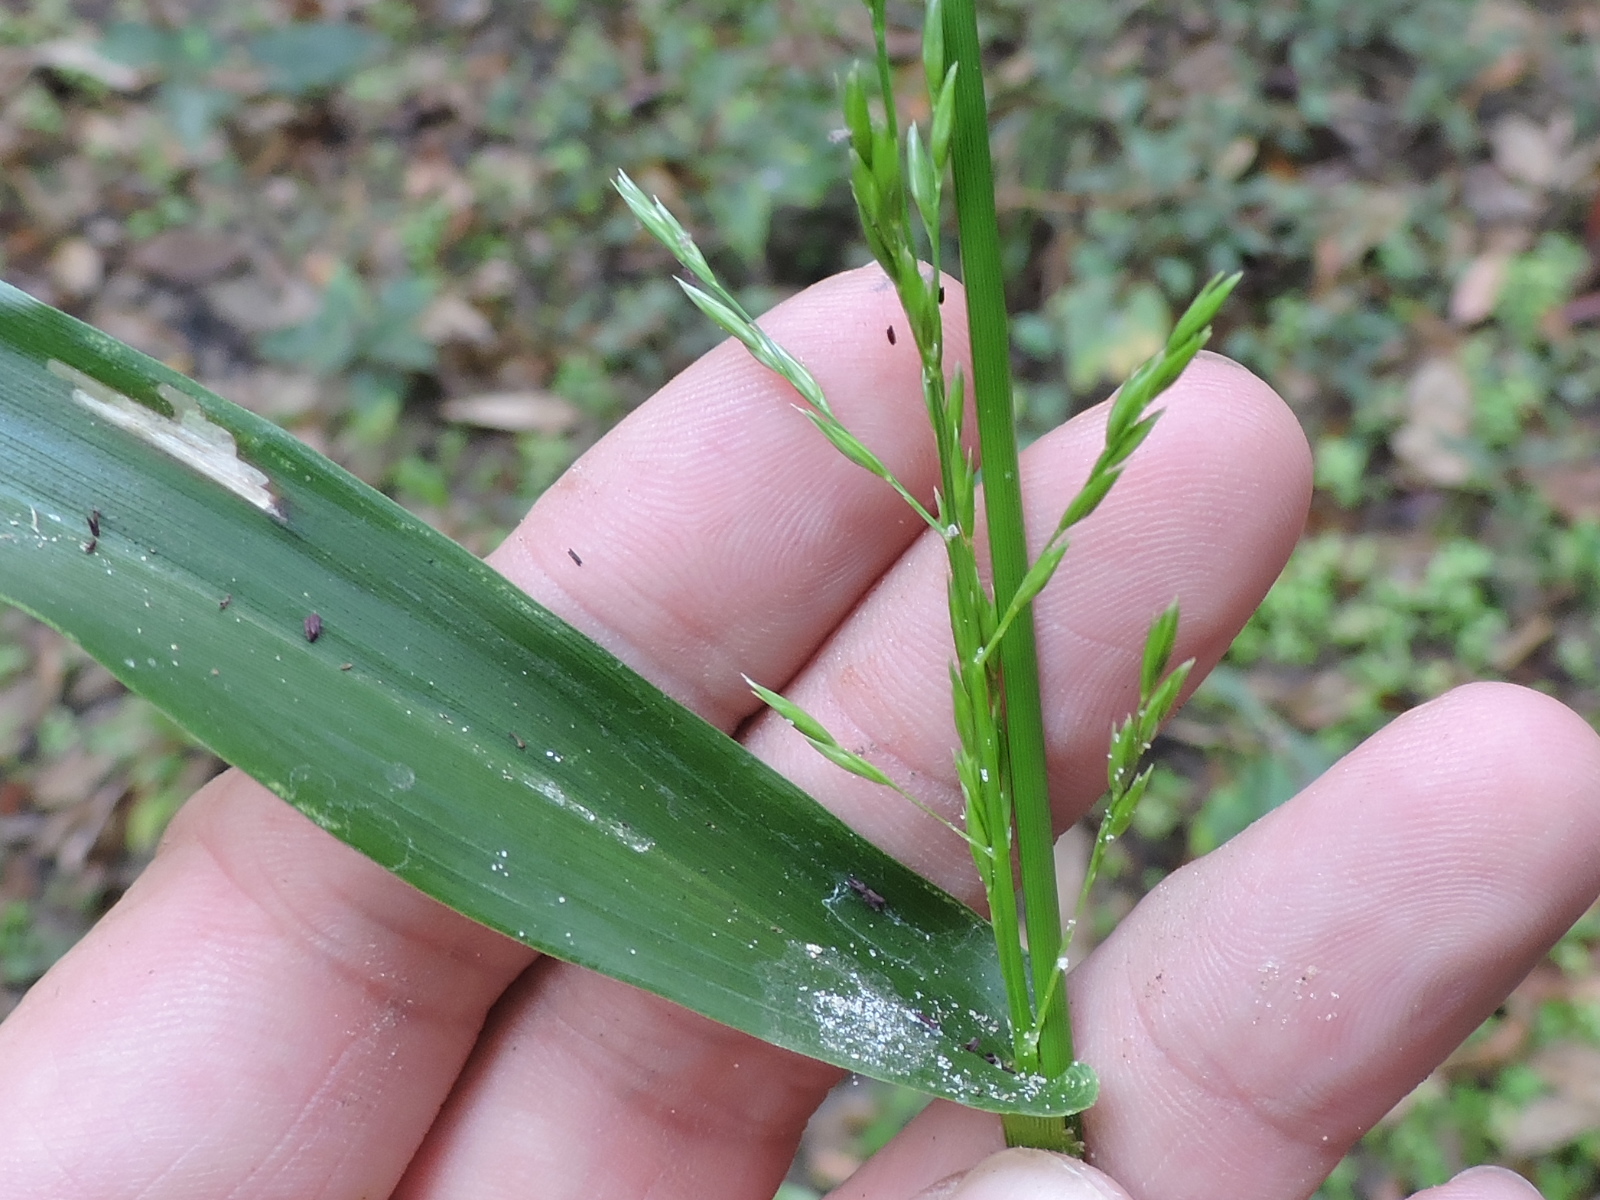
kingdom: Plantae
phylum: Tracheophyta
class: Liliopsida
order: Poales
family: Poaceae
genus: Panicum
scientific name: Panicum gymnocarpon
